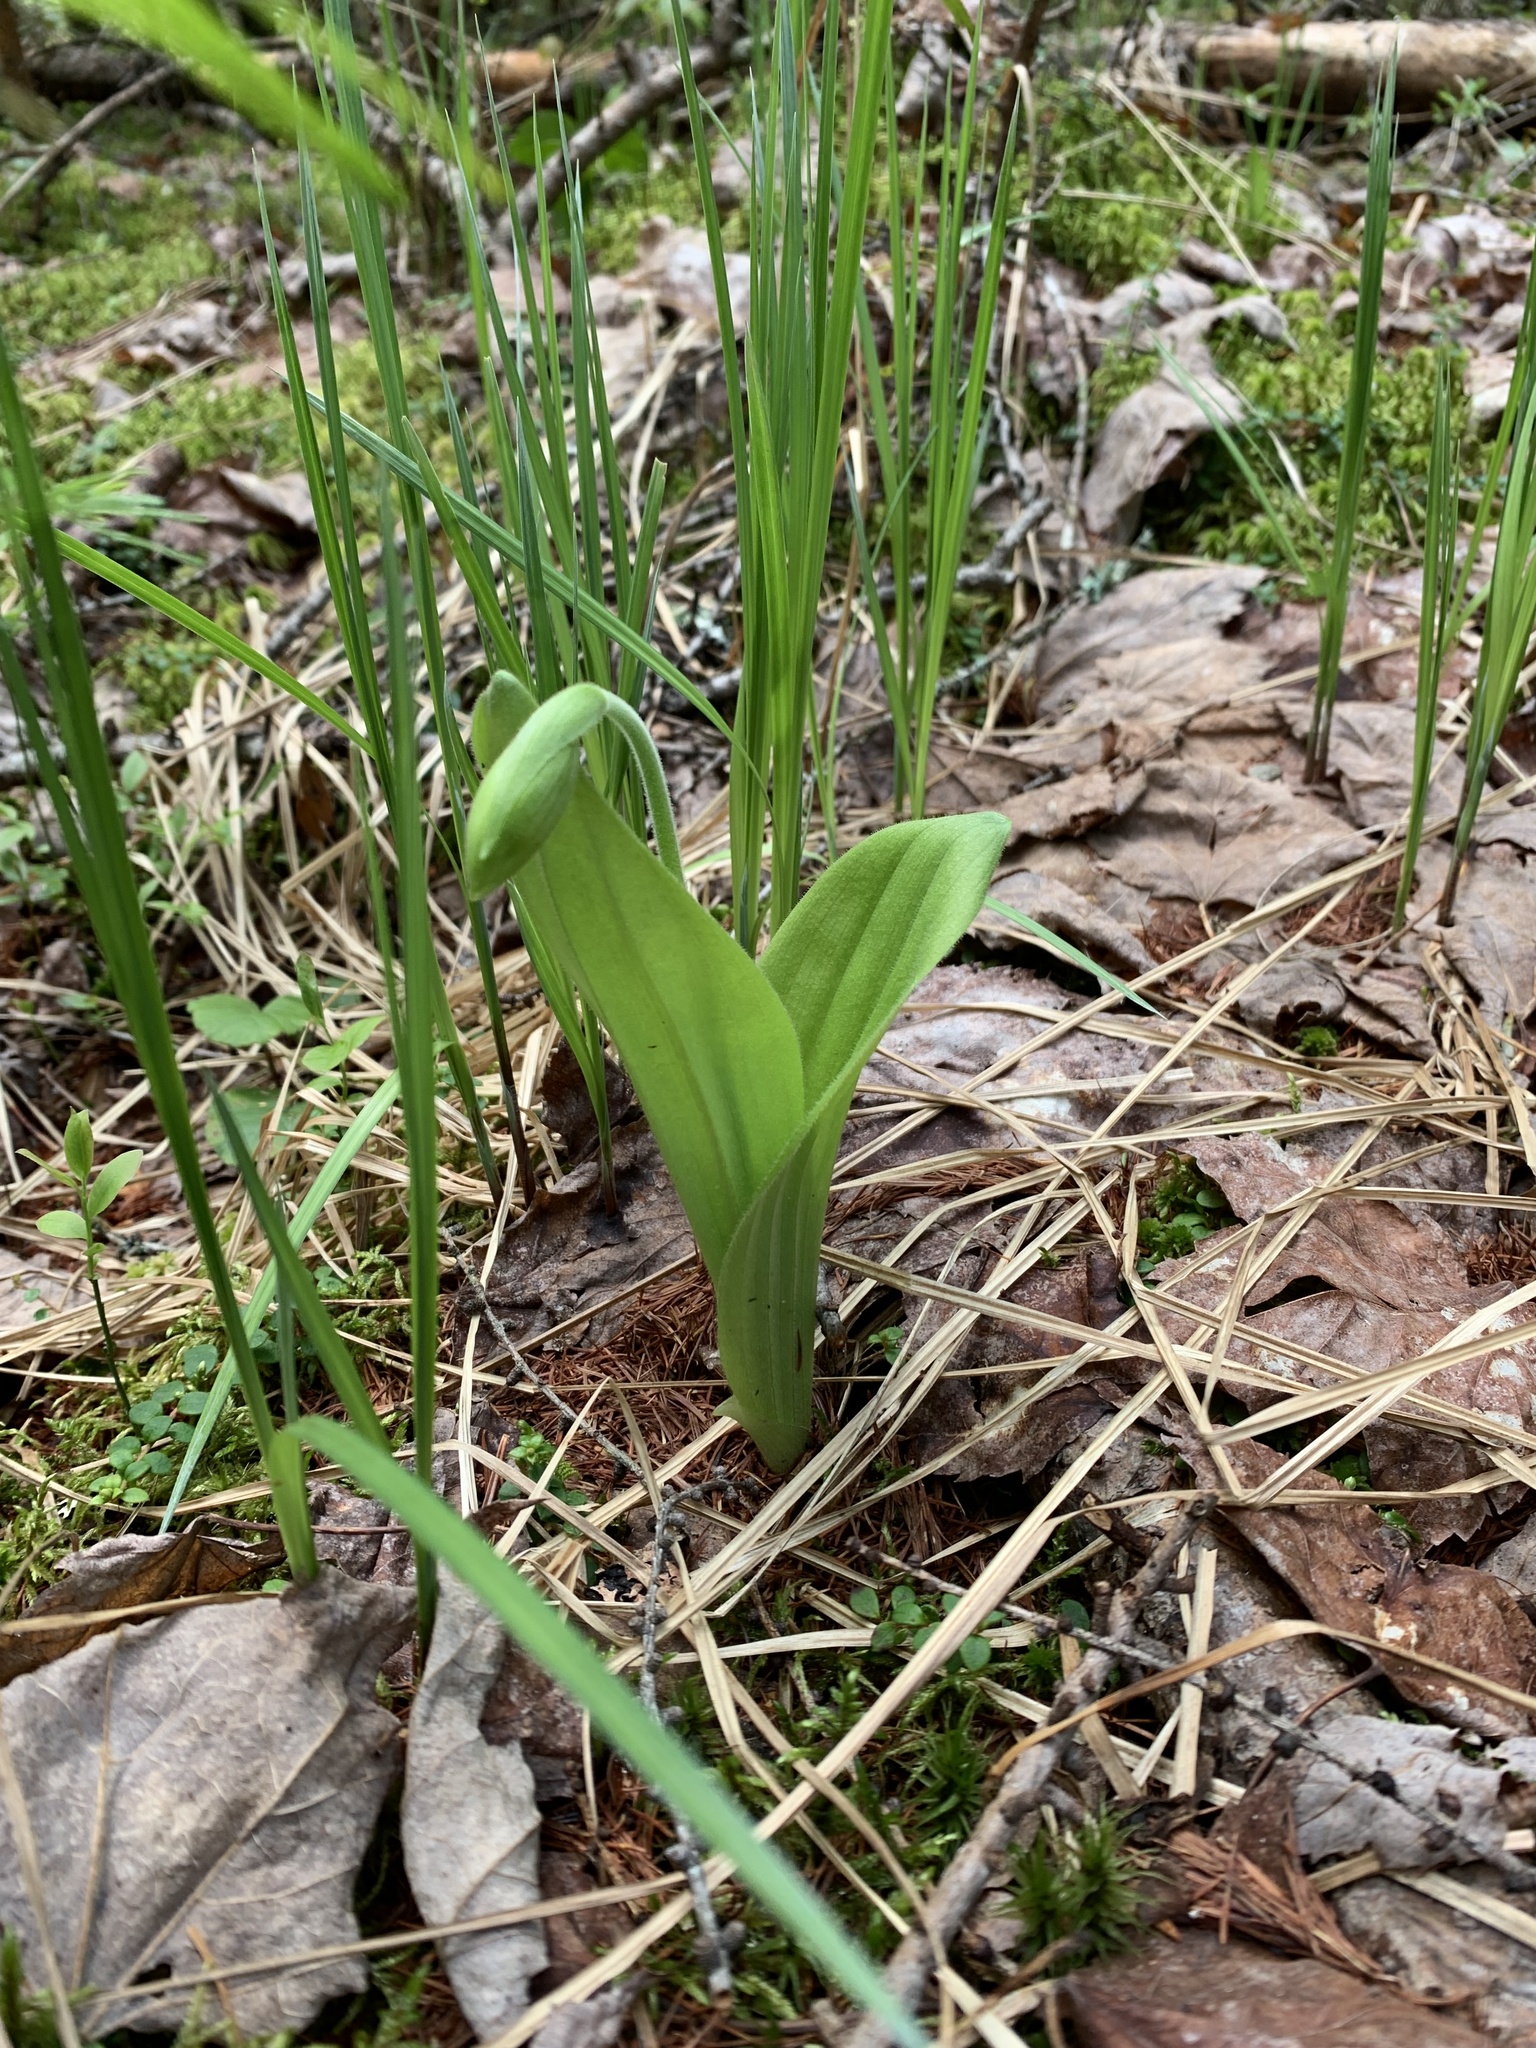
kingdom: Plantae
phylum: Tracheophyta
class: Liliopsida
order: Asparagales
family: Orchidaceae
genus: Cypripedium
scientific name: Cypripedium acaule
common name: Pink lady's-slipper
